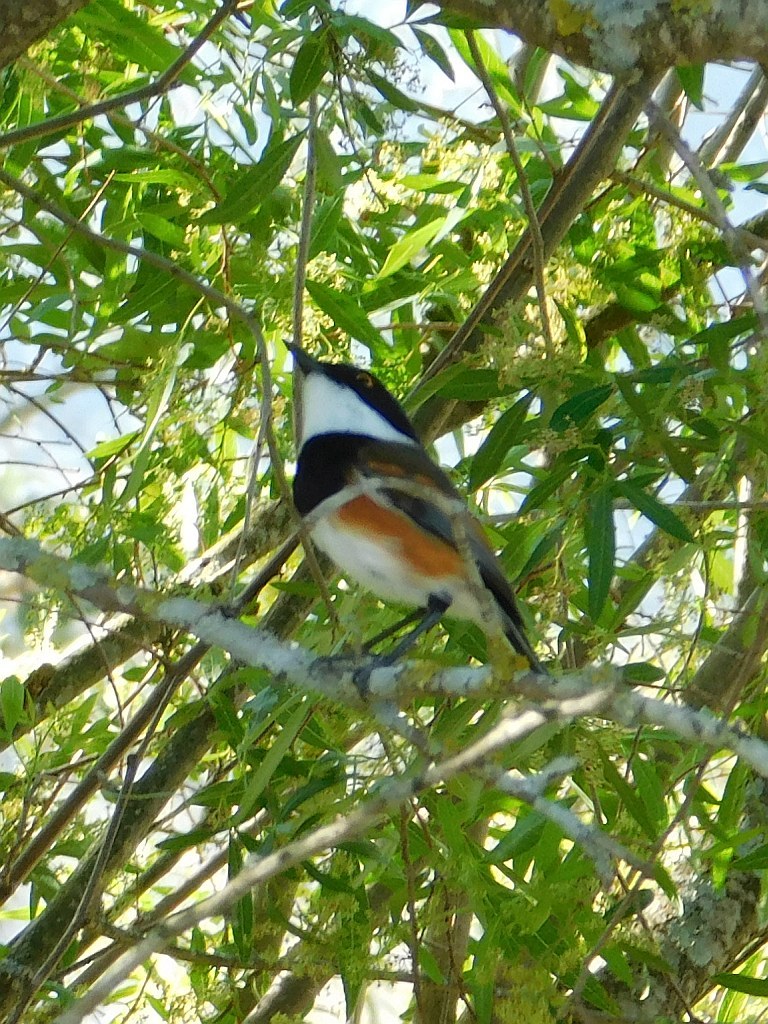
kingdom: Animalia
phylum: Chordata
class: Aves
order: Passeriformes
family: Platysteiridae
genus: Batis
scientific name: Batis capensis
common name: Cape batis
